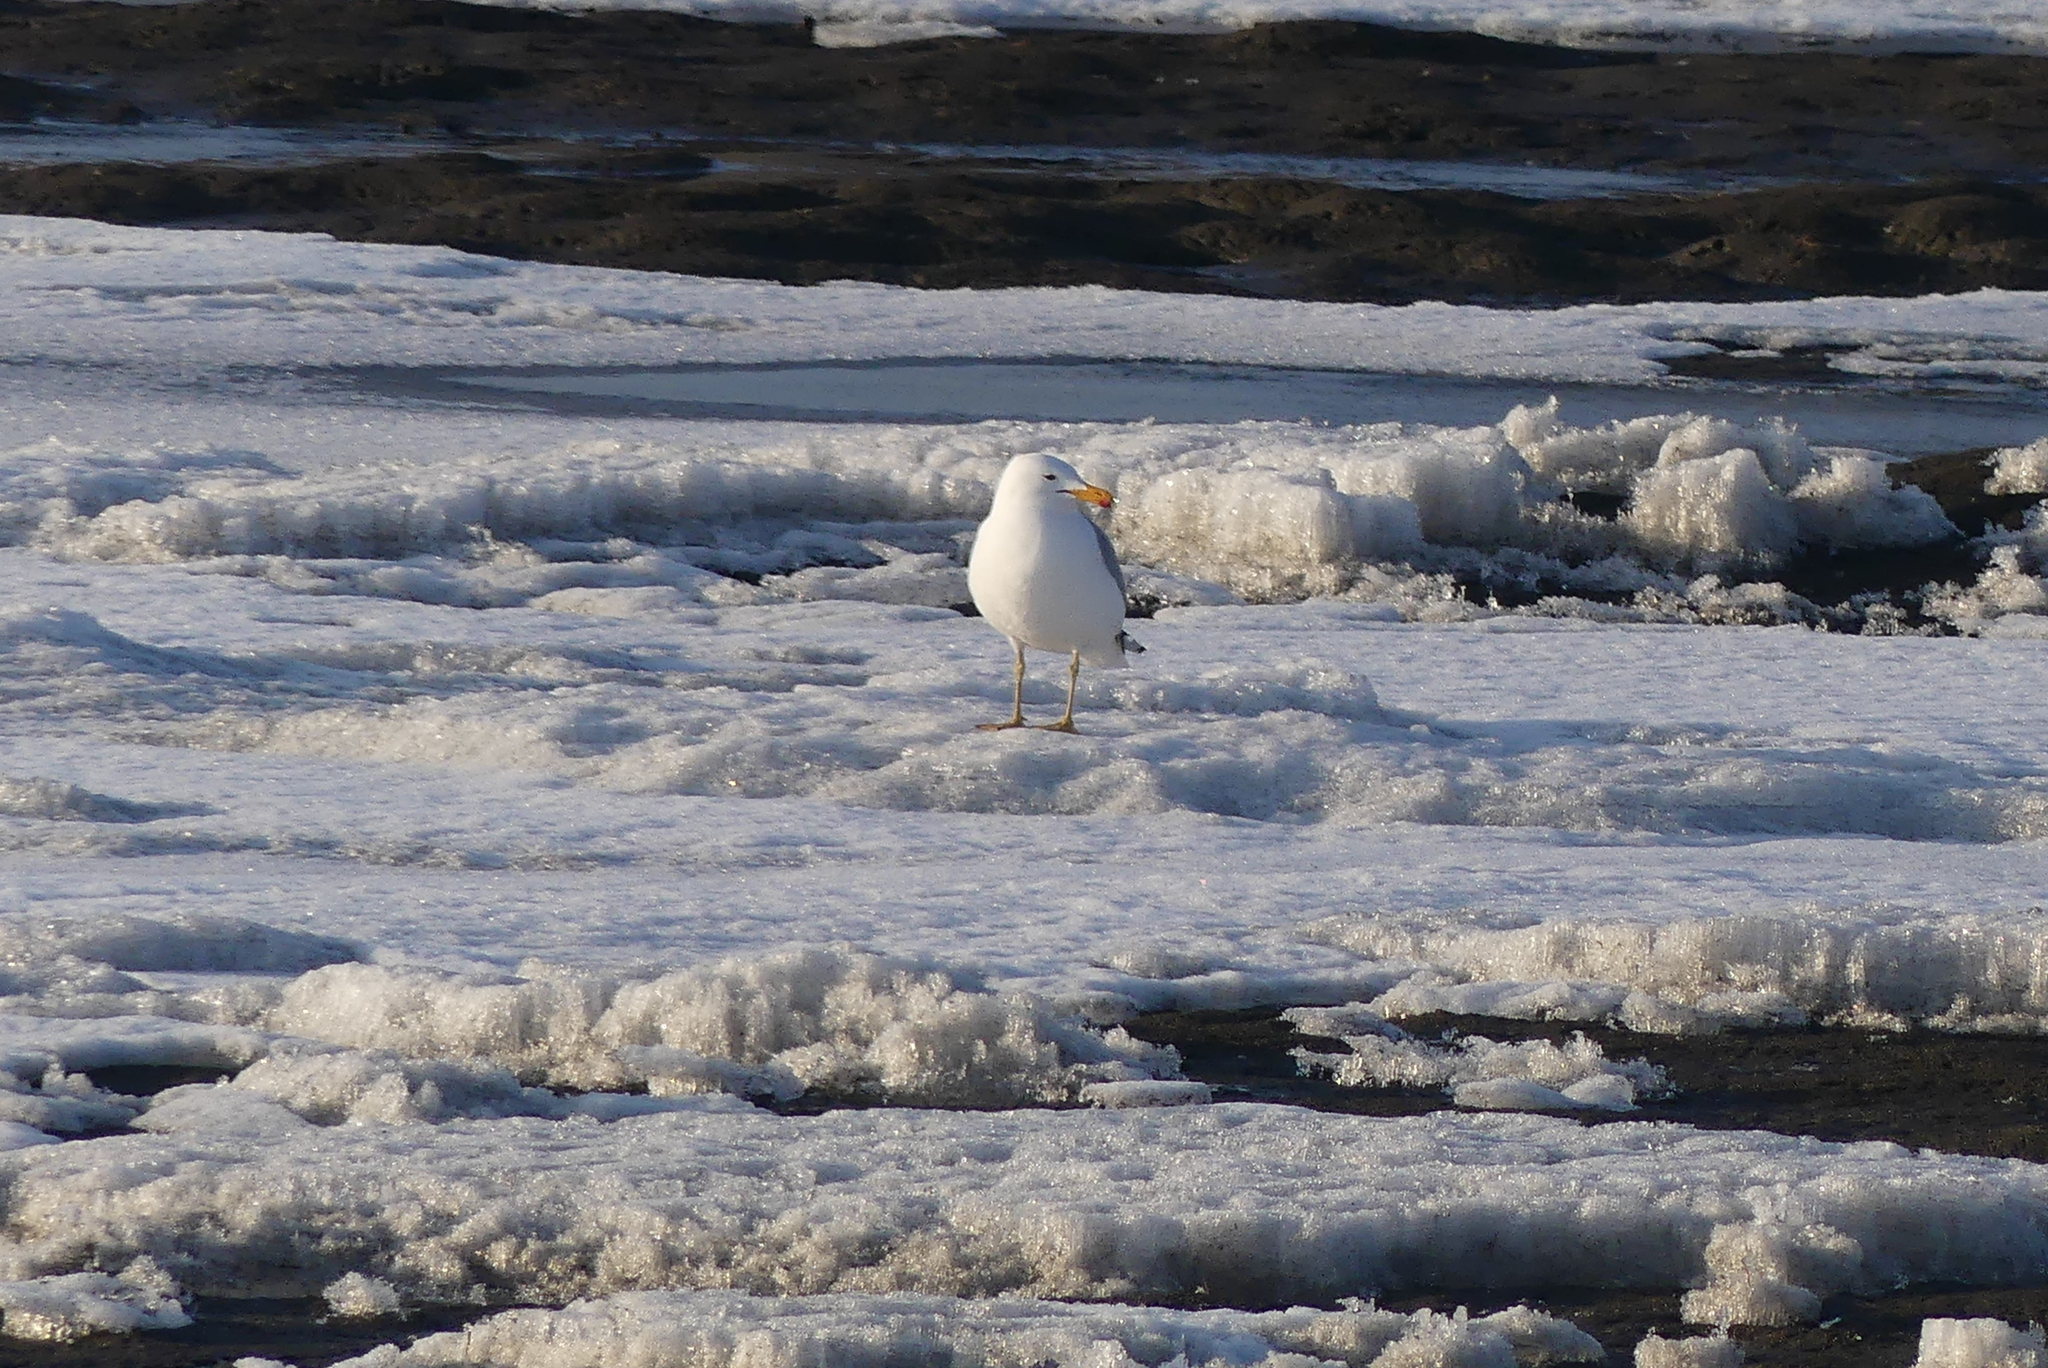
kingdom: Animalia
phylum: Chordata
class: Aves
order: Charadriiformes
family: Laridae
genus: Larus
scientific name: Larus argentatus
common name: Herring gull
